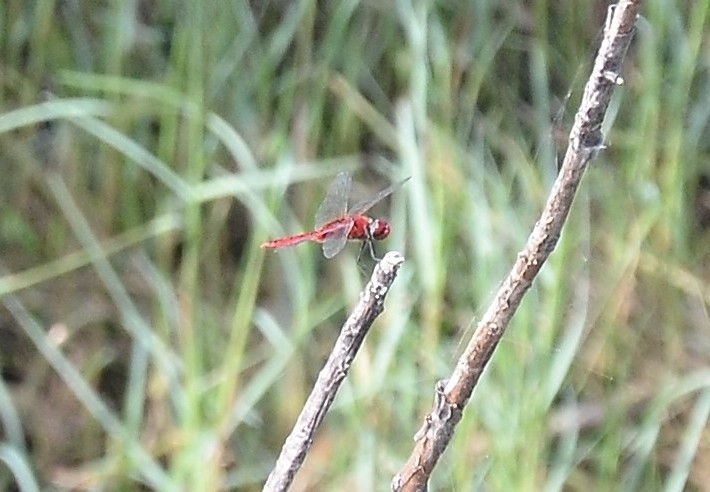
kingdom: Animalia
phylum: Arthropoda
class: Insecta
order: Odonata
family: Libellulidae
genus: Urothemis
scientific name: Urothemis signata
